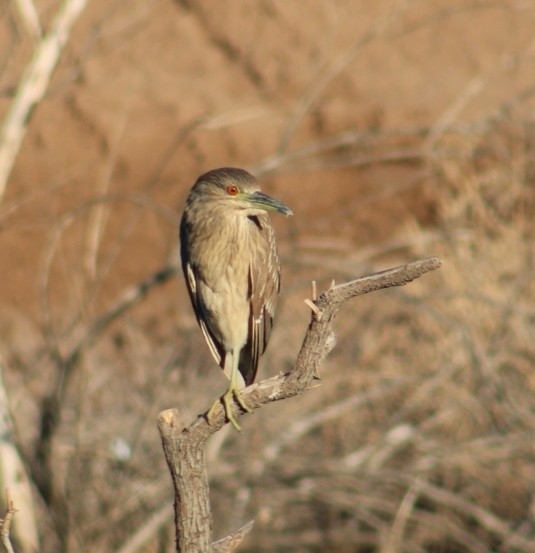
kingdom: Animalia
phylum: Chordata
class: Aves
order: Pelecaniformes
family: Ardeidae
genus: Nycticorax
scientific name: Nycticorax nycticorax
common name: Black-crowned night heron
